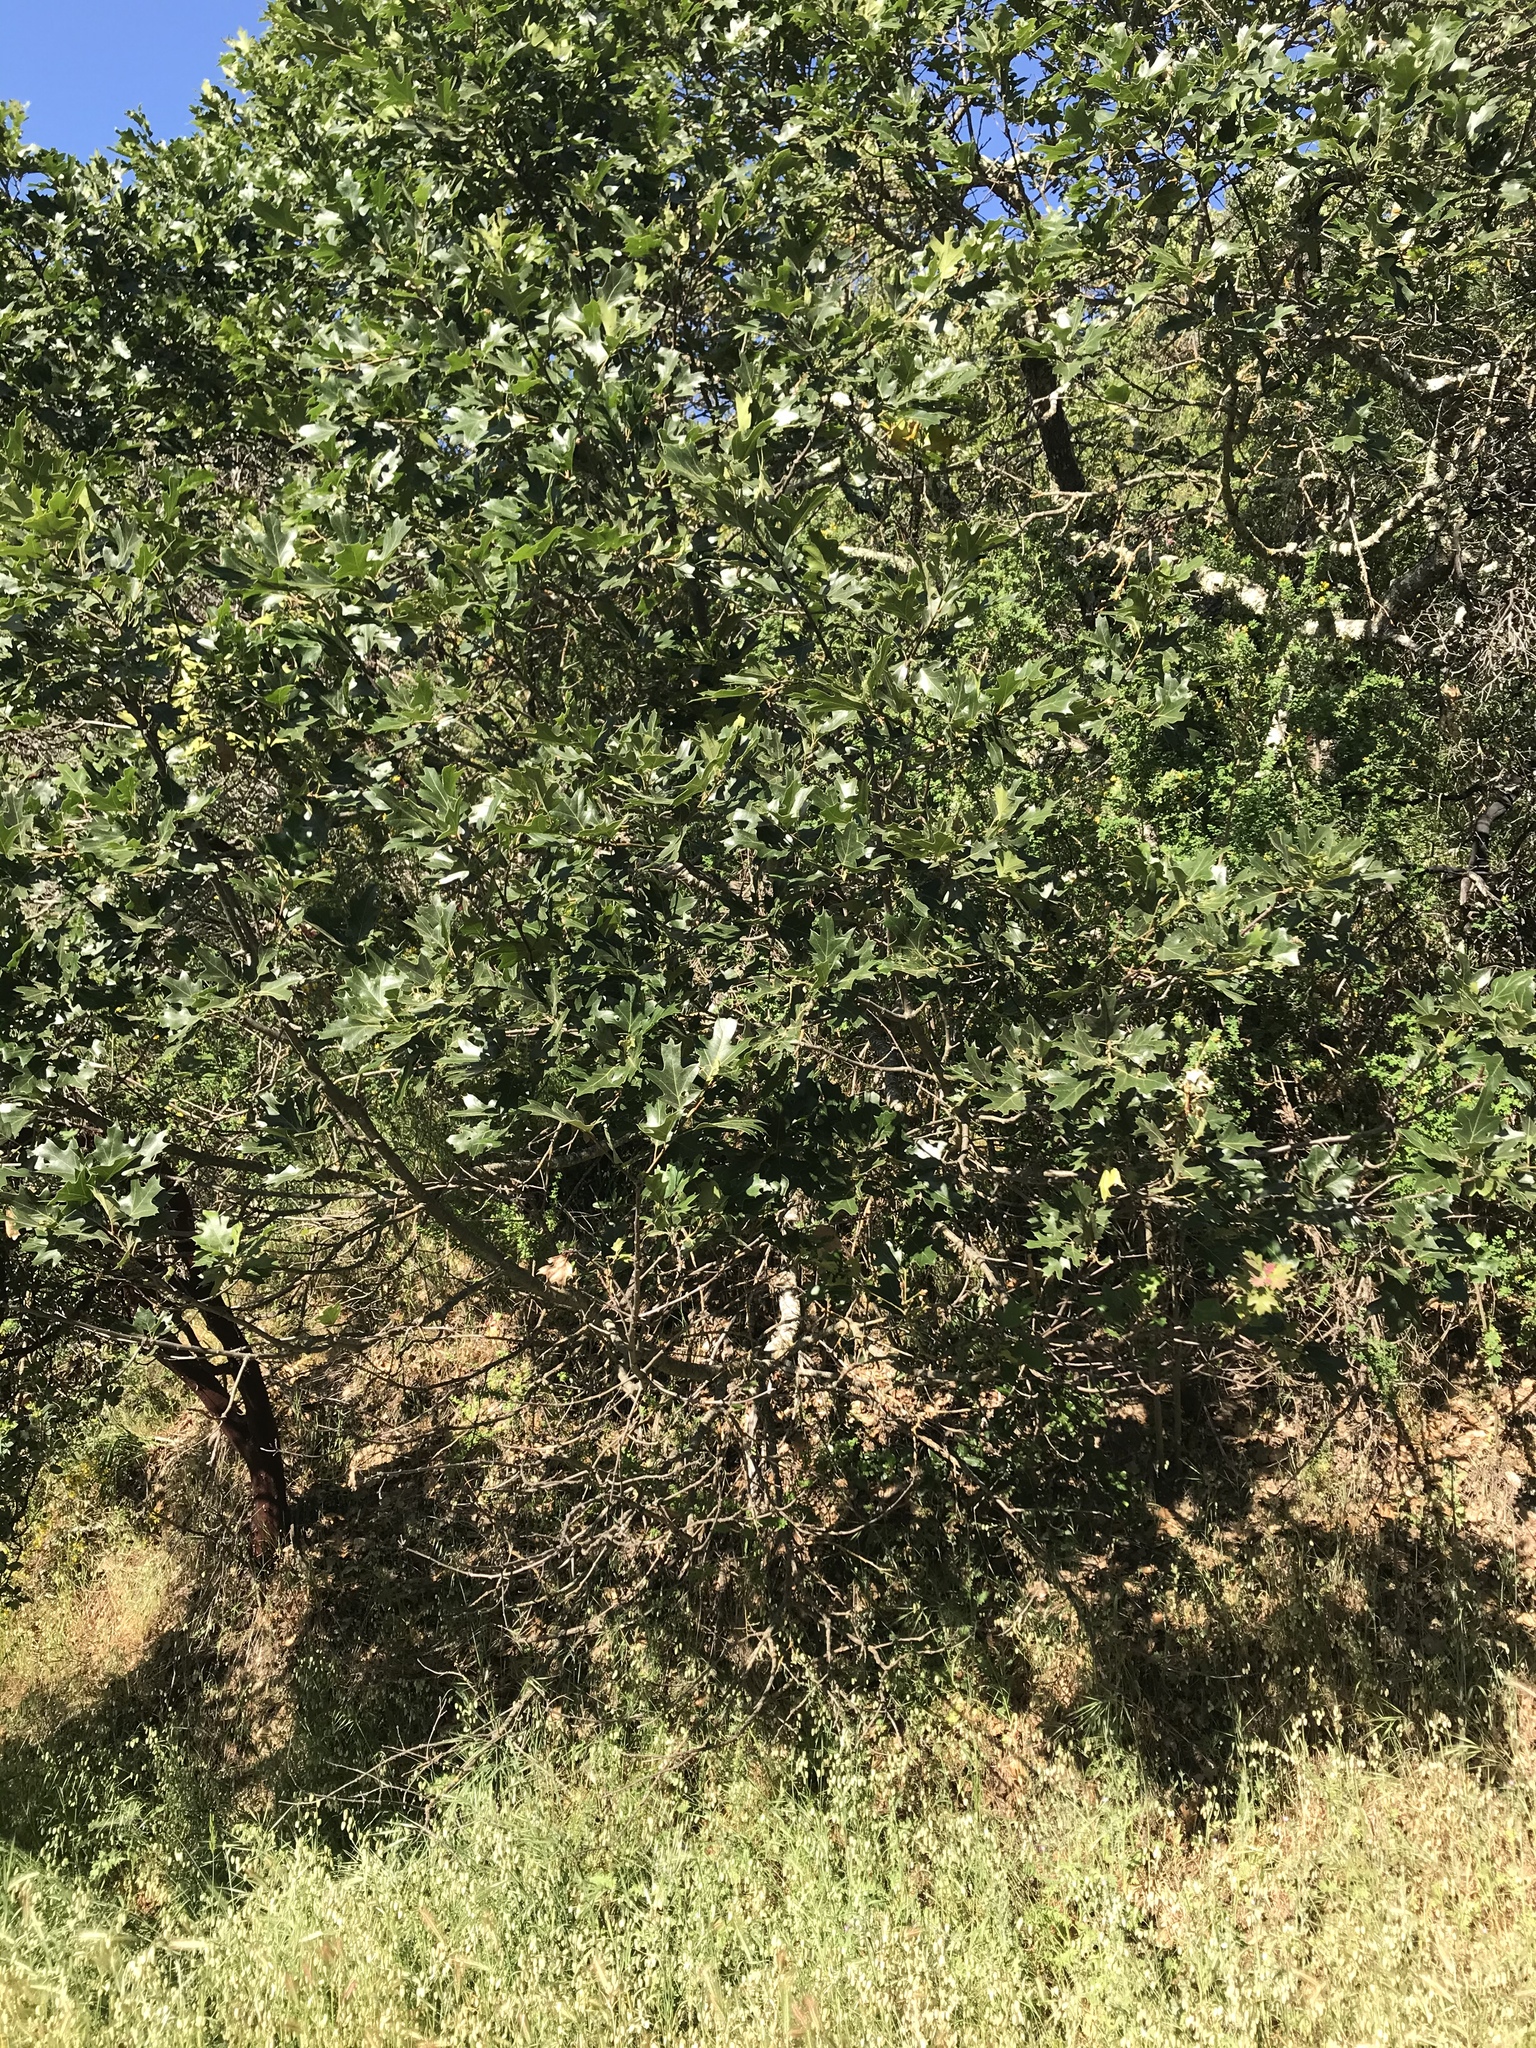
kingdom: Plantae
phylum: Tracheophyta
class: Magnoliopsida
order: Fagales
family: Fagaceae
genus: Quercus
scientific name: Quercus kelloggii
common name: California black oak
